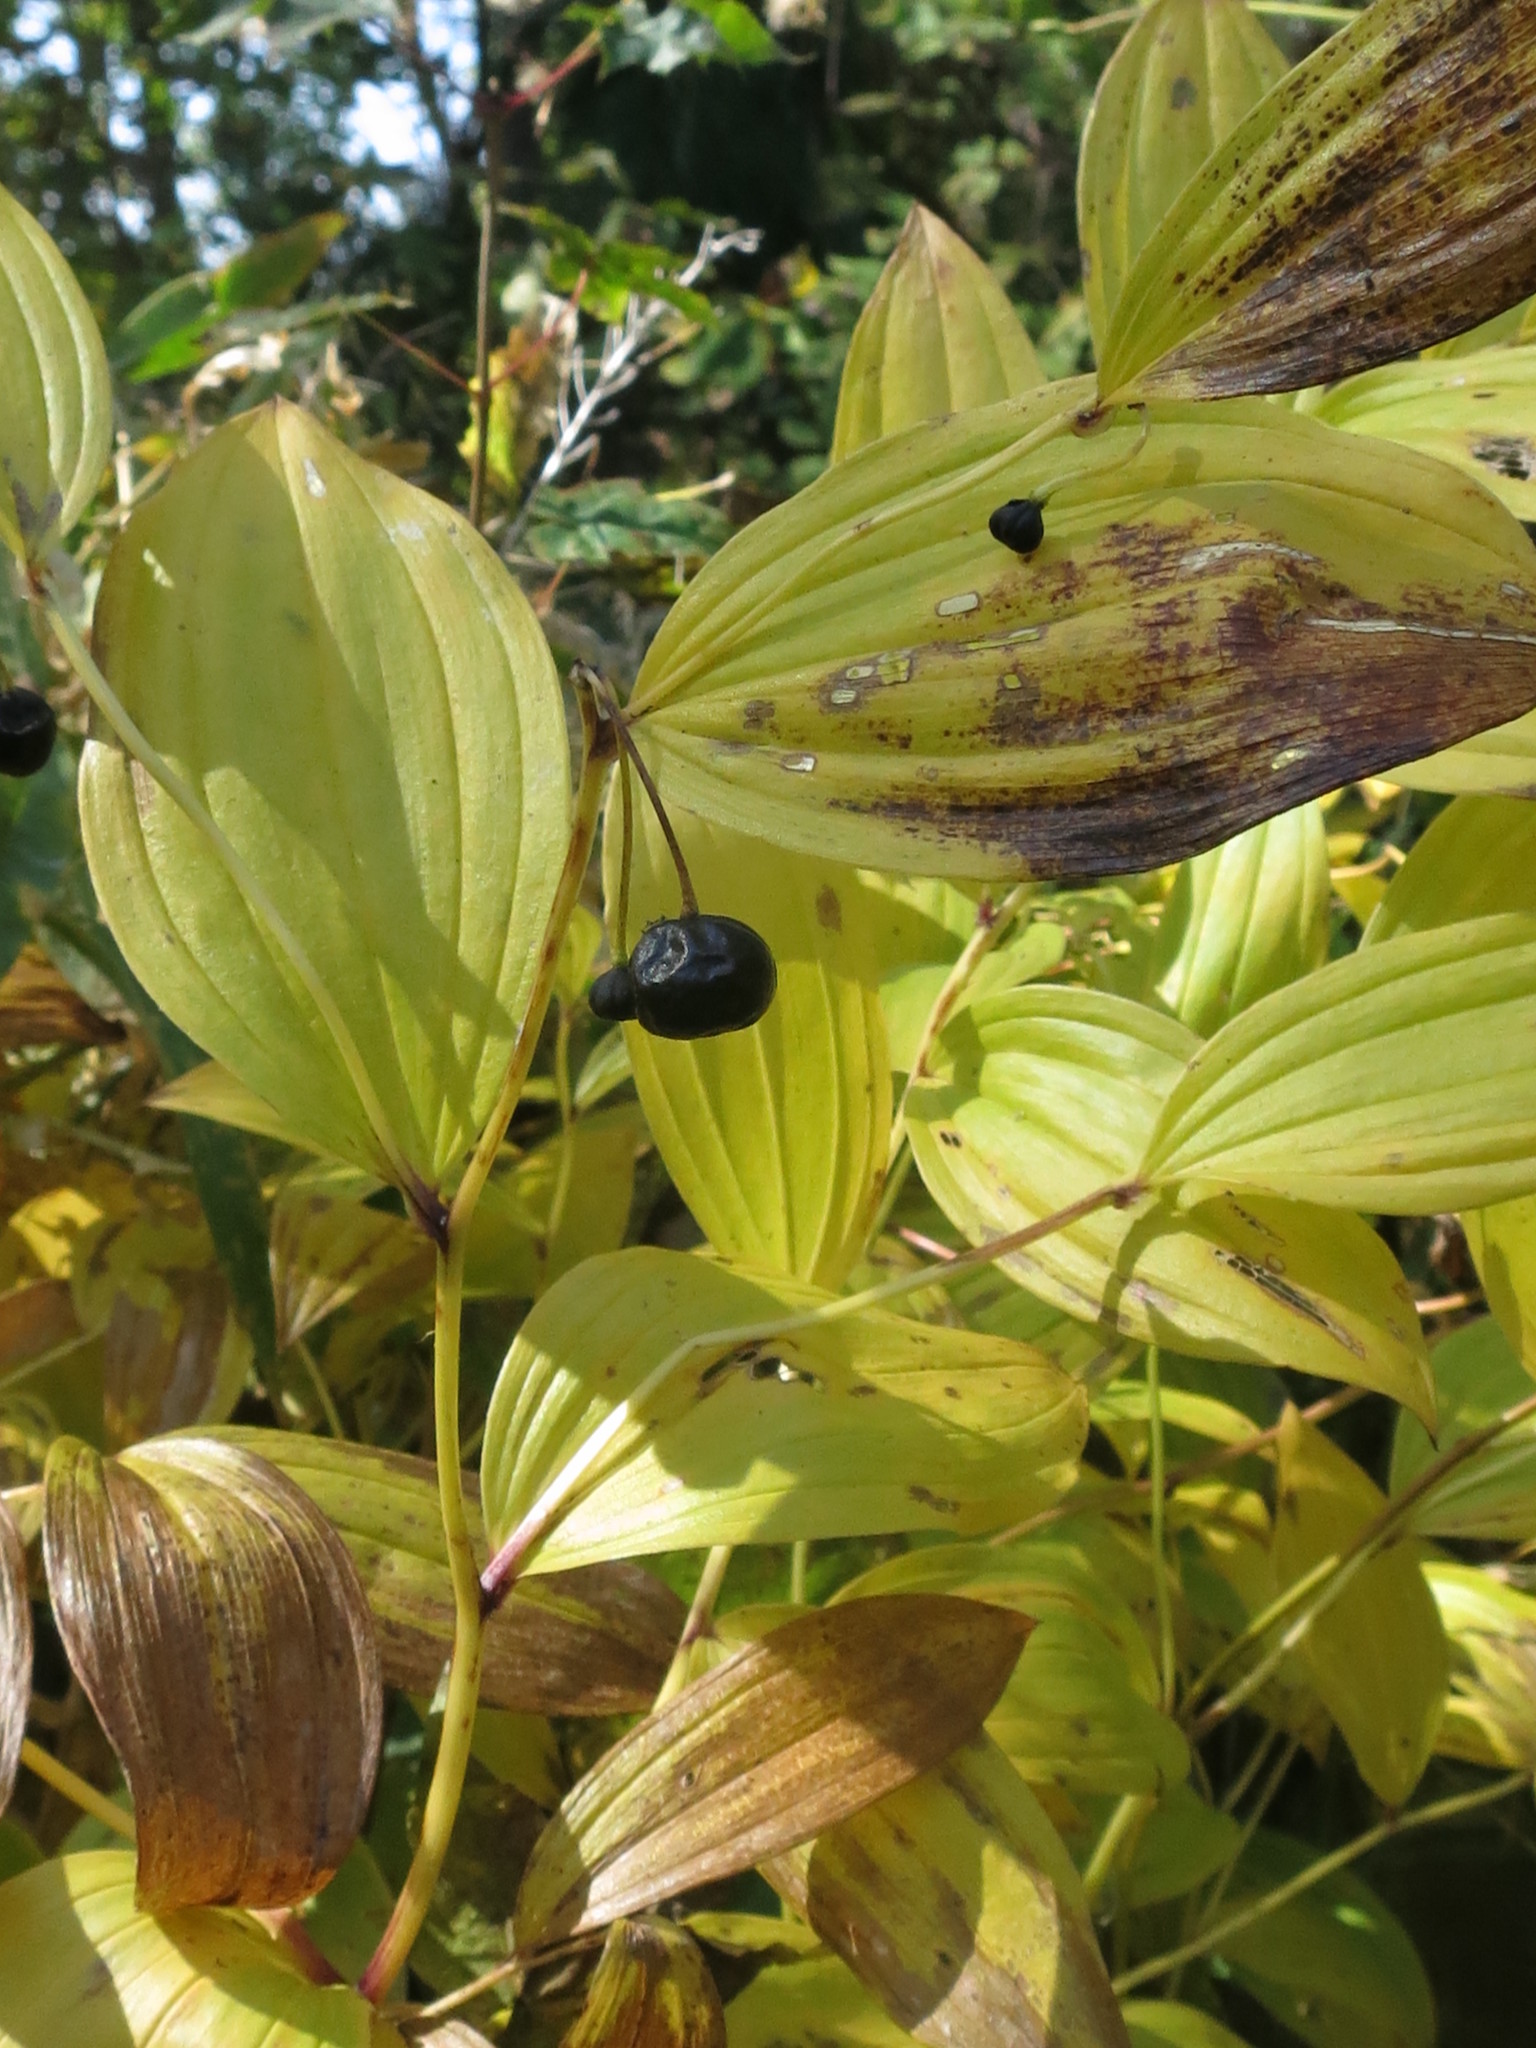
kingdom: Plantae
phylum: Tracheophyta
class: Liliopsida
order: Liliales
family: Colchicaceae
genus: Disporum
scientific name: Disporum viridescens
